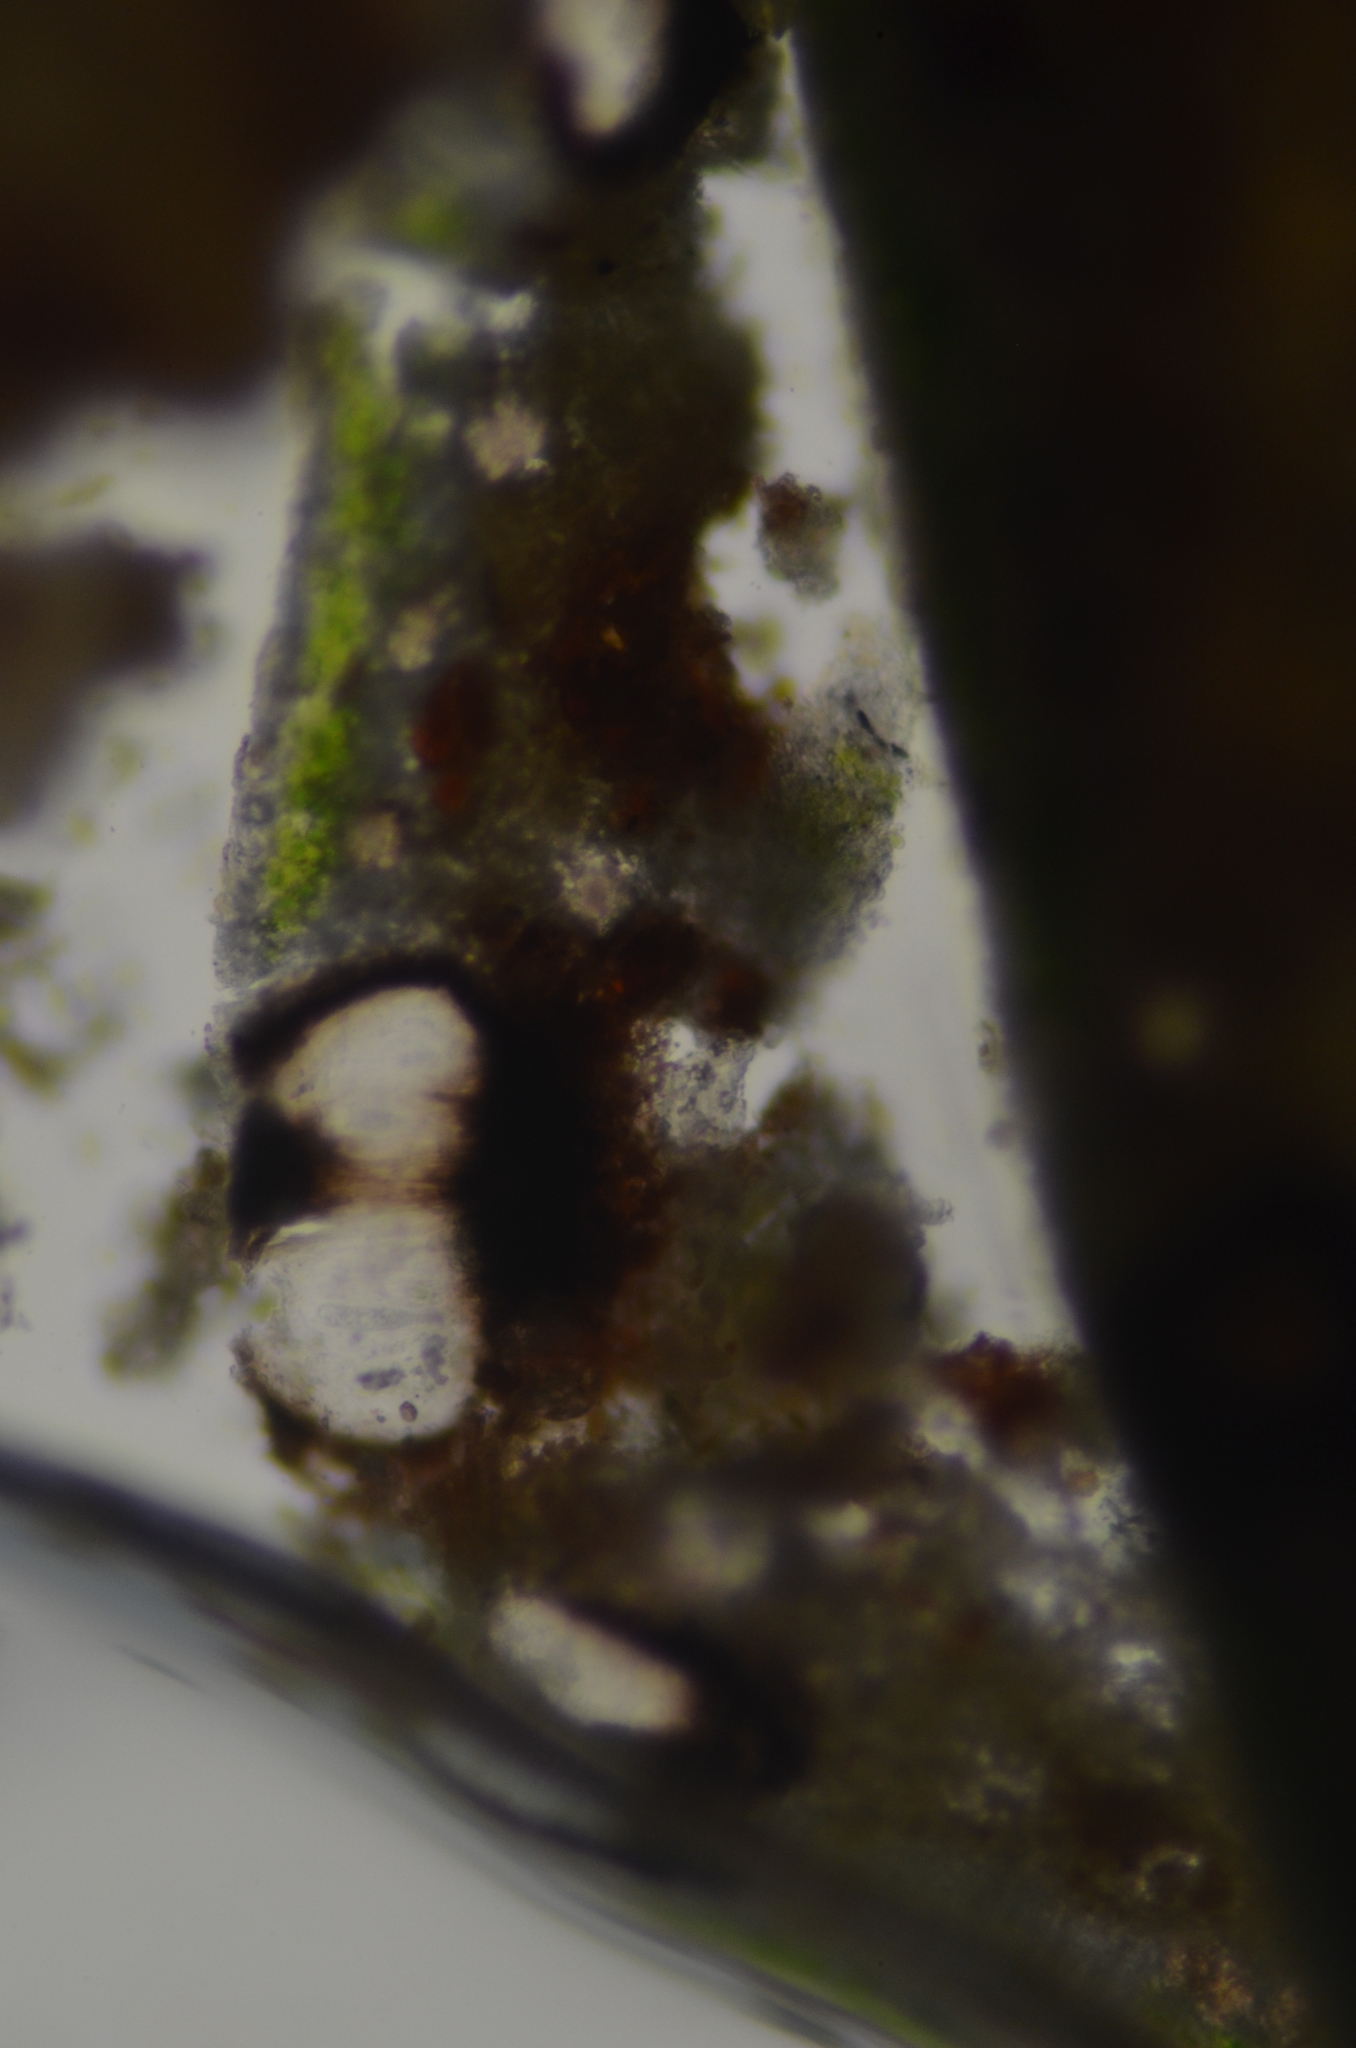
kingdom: Fungi
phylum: Ascomycota
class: Lecanoromycetes
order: Lecideales
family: Lecideaceae
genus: Cyclohymenia
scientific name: Cyclohymenia epilithica
